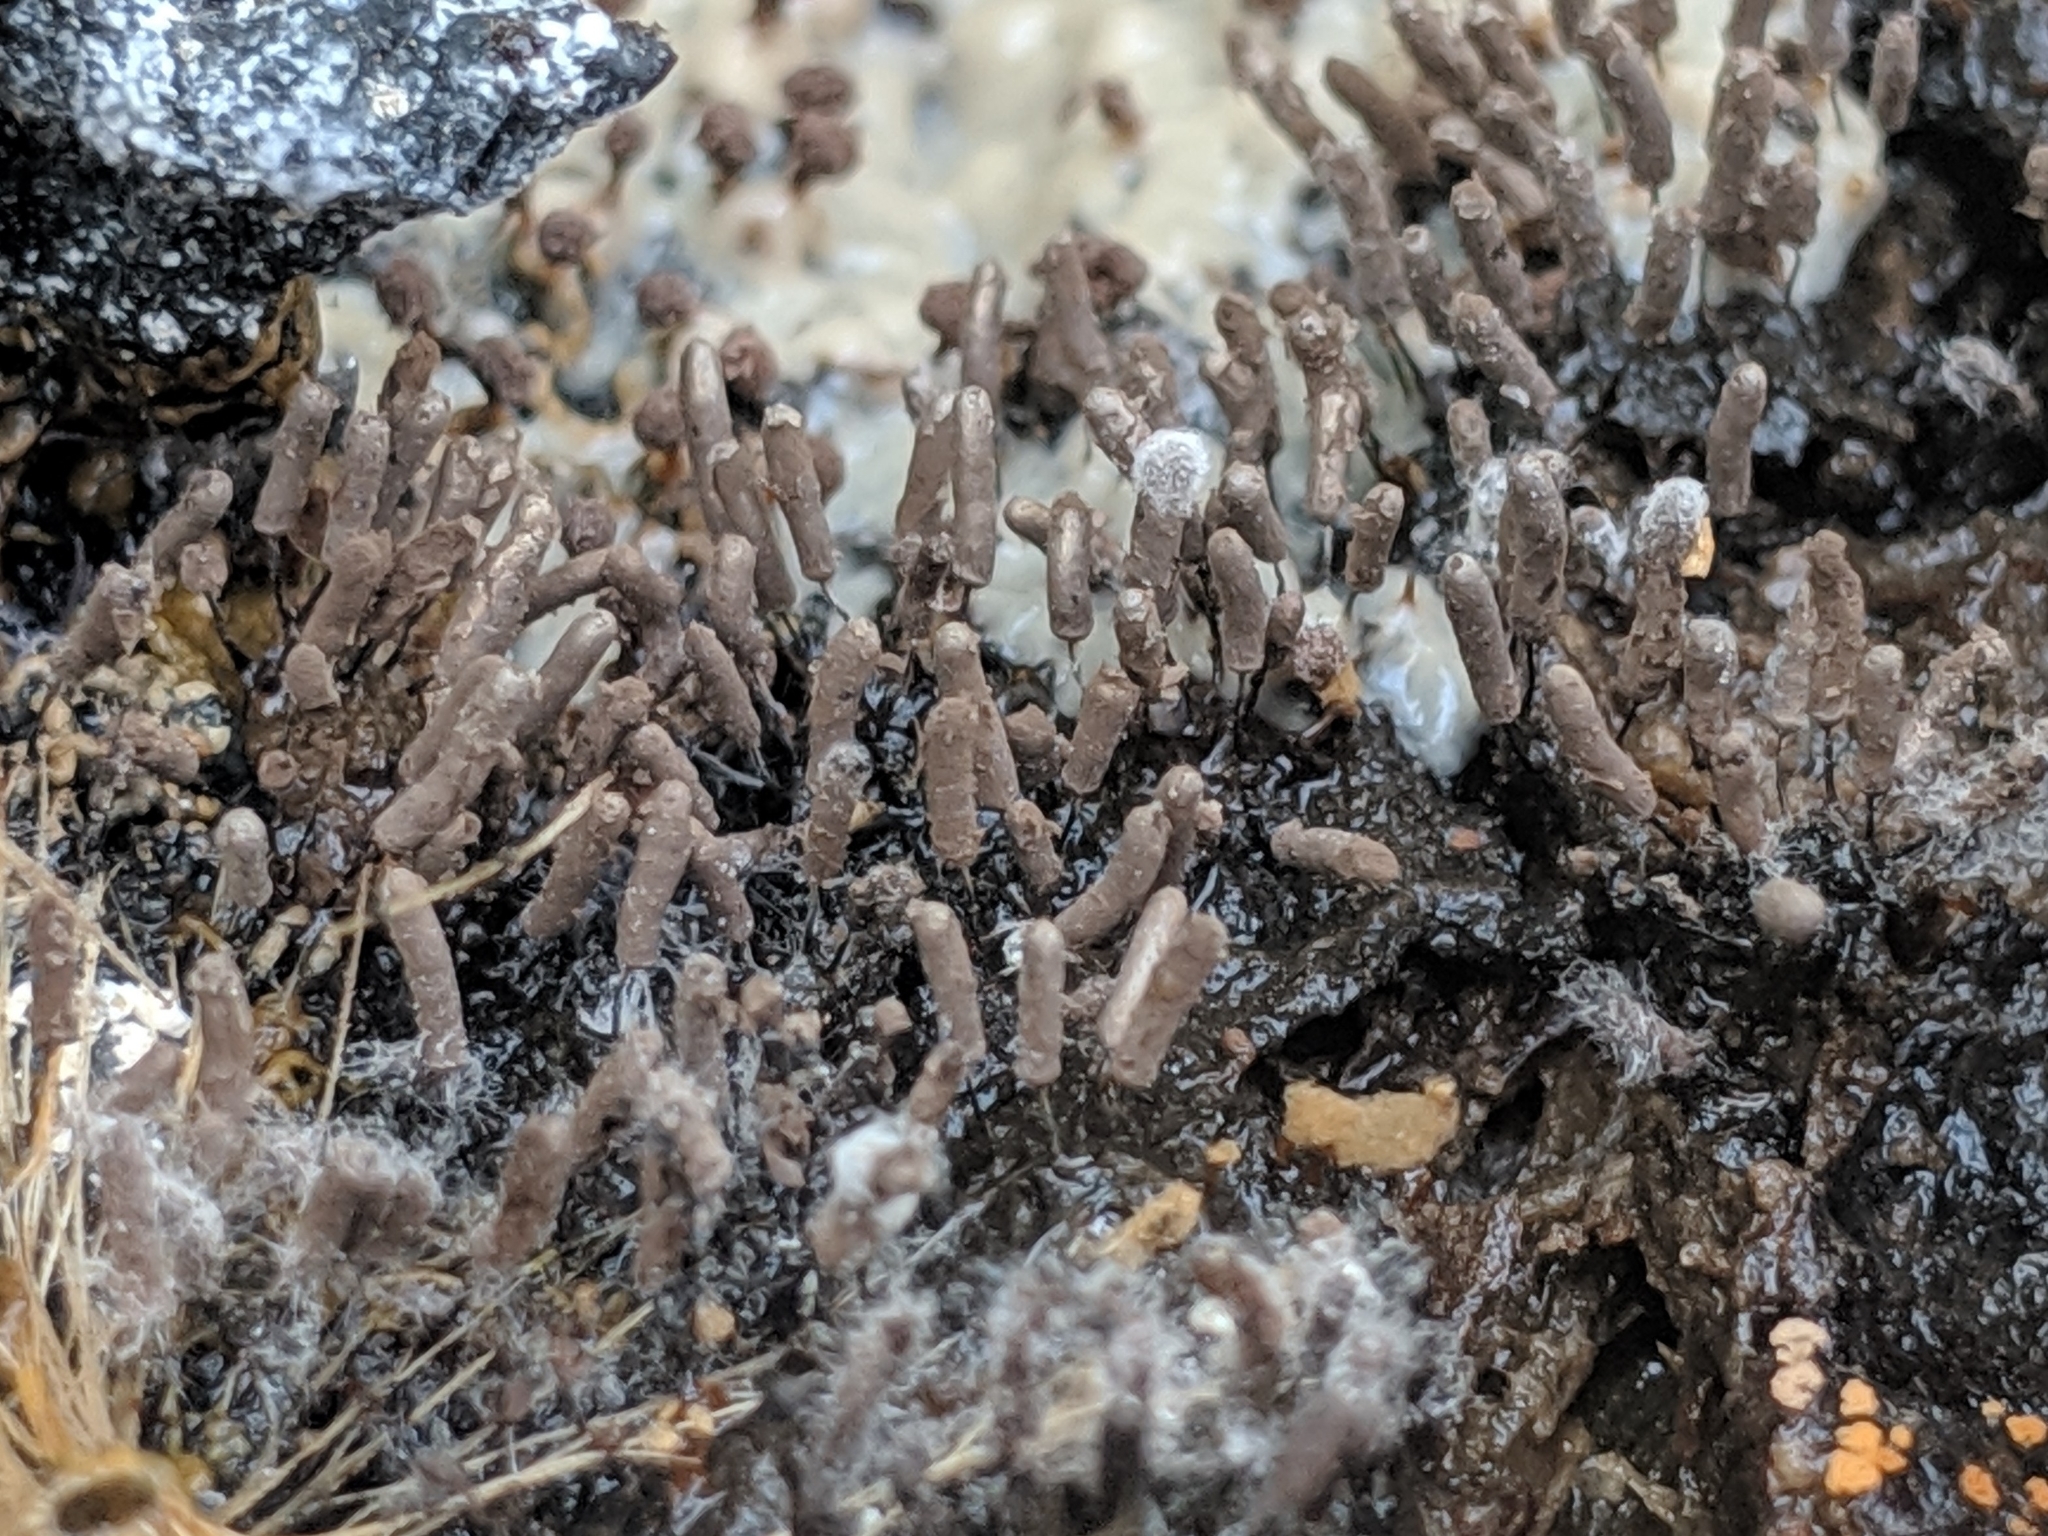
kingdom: Protozoa
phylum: Mycetozoa
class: Myxomycetes
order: Stemonitidales
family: Stemonitidaceae
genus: Stemonitopsis
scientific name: Stemonitopsis typhina
